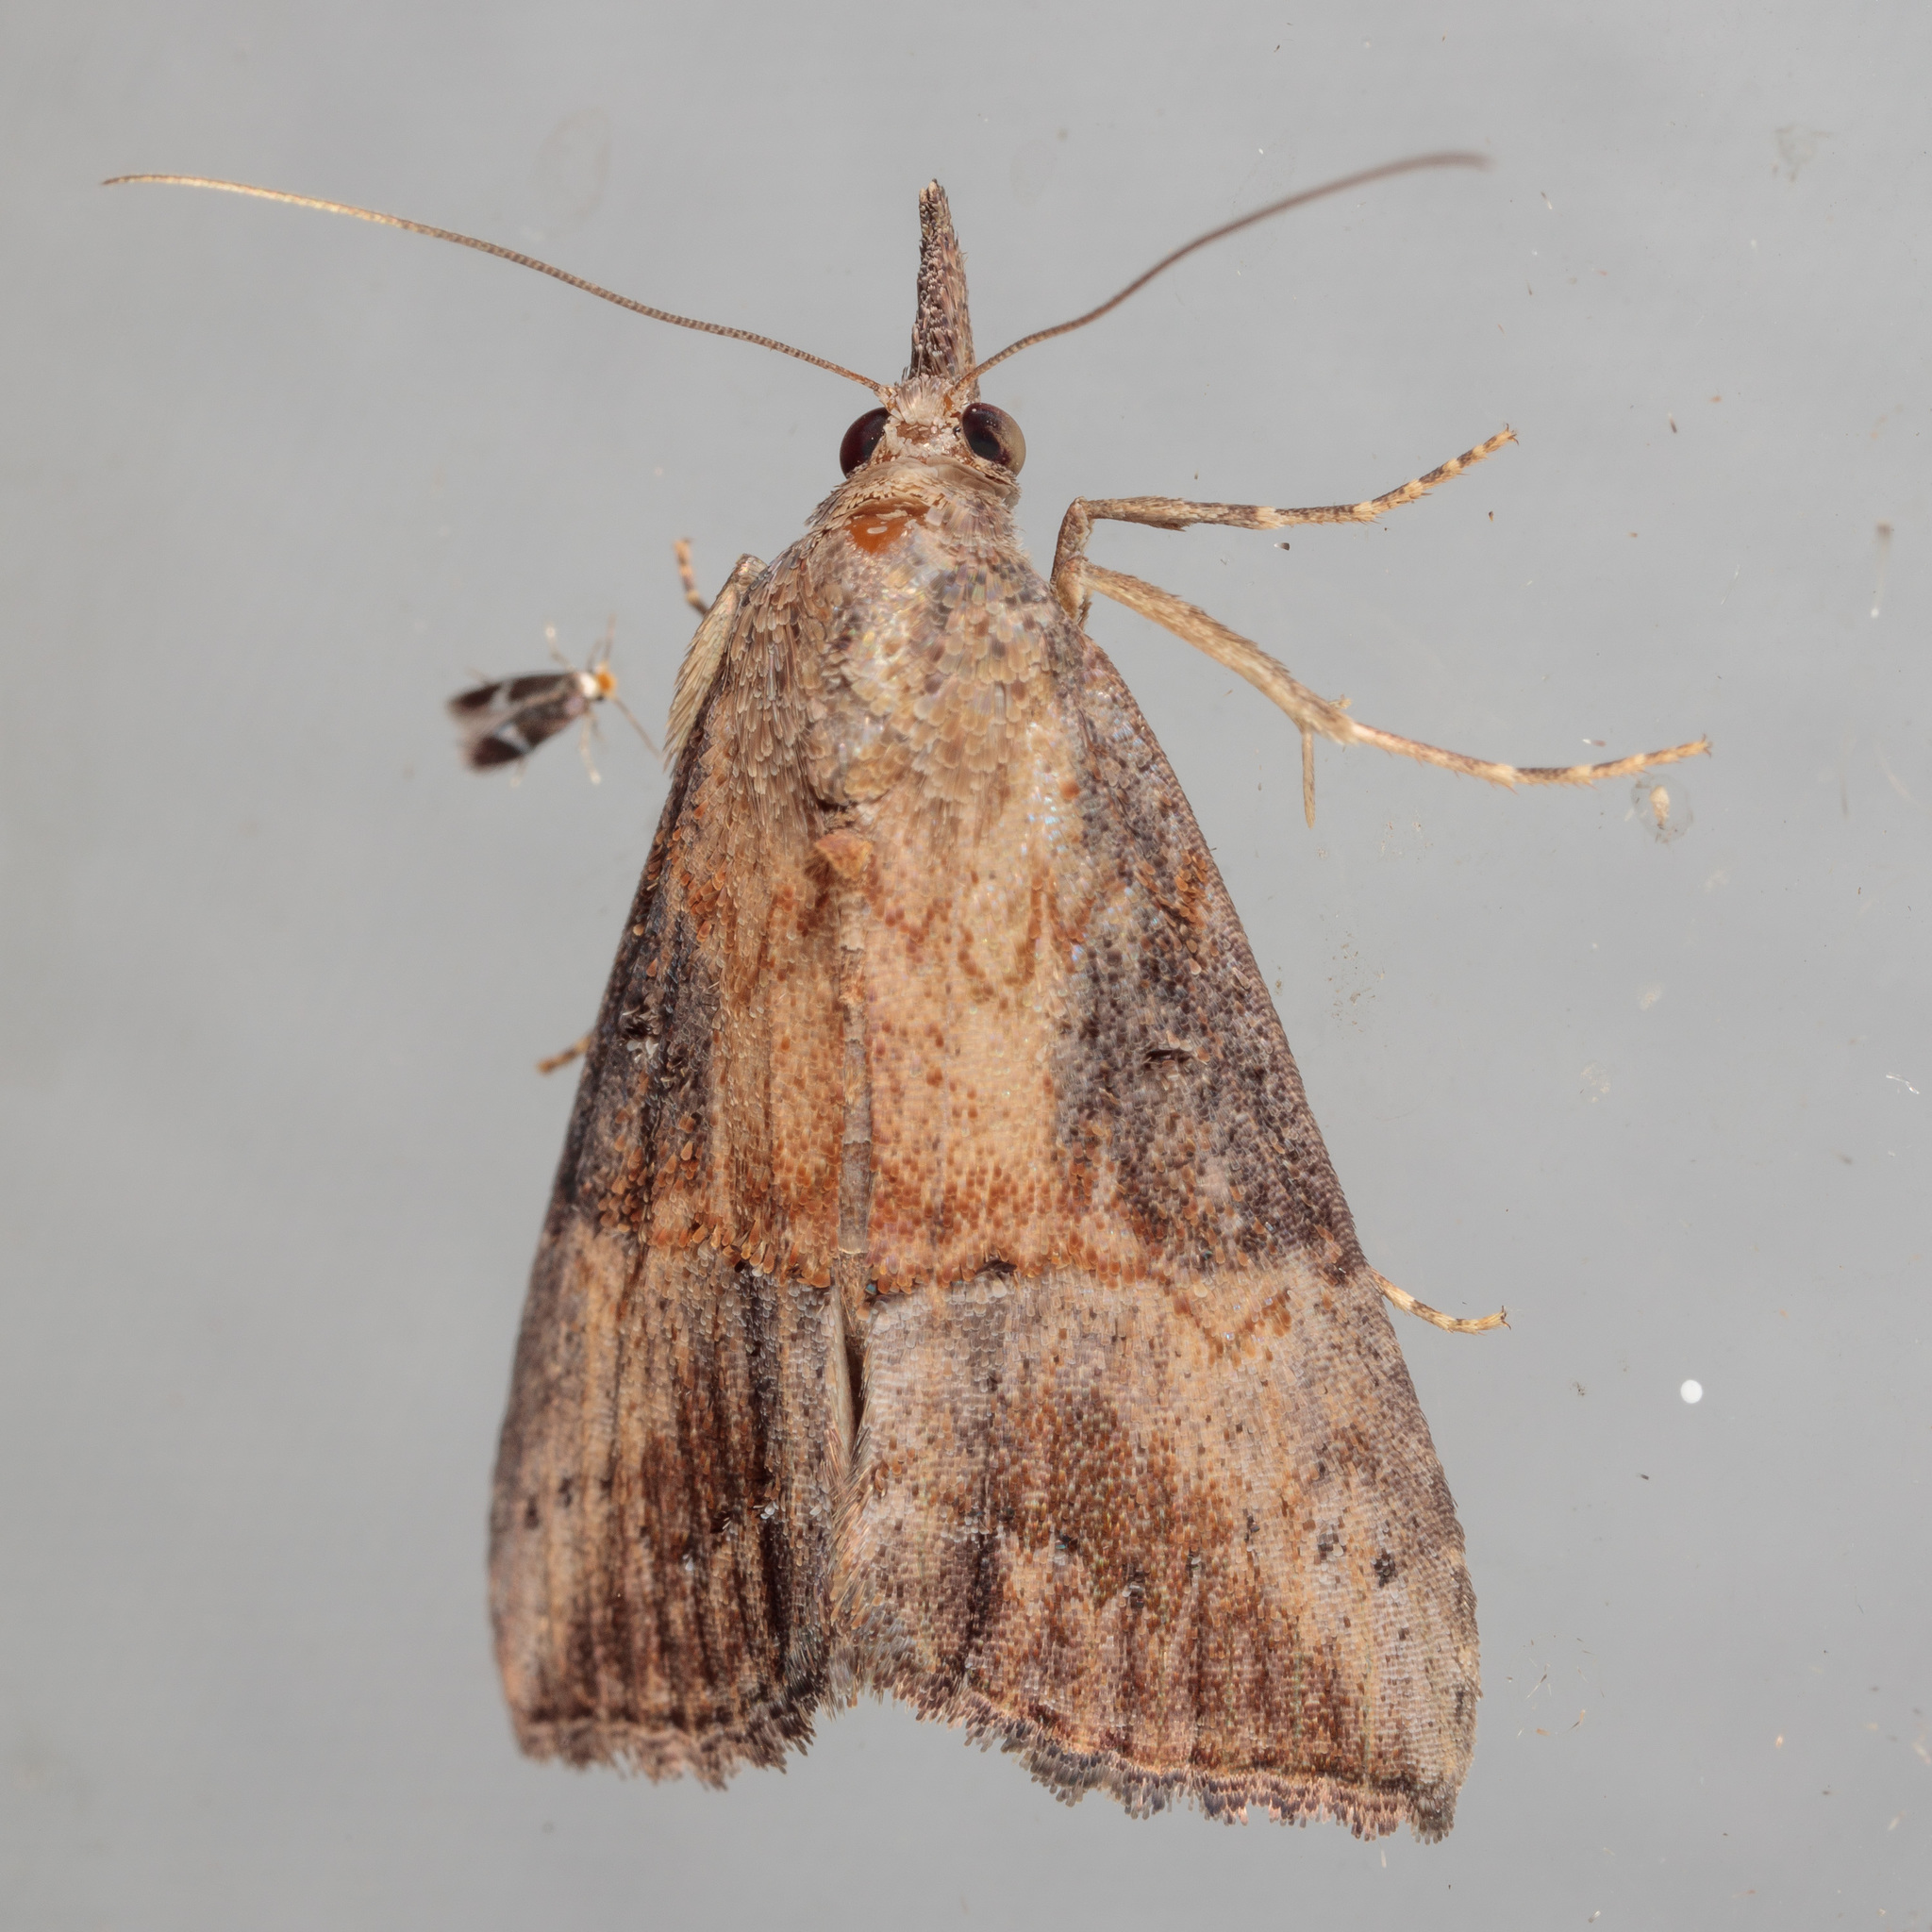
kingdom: Animalia
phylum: Arthropoda
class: Insecta
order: Lepidoptera
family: Erebidae
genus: Hypena
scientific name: Hypena scabra
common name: Green cloverworm
